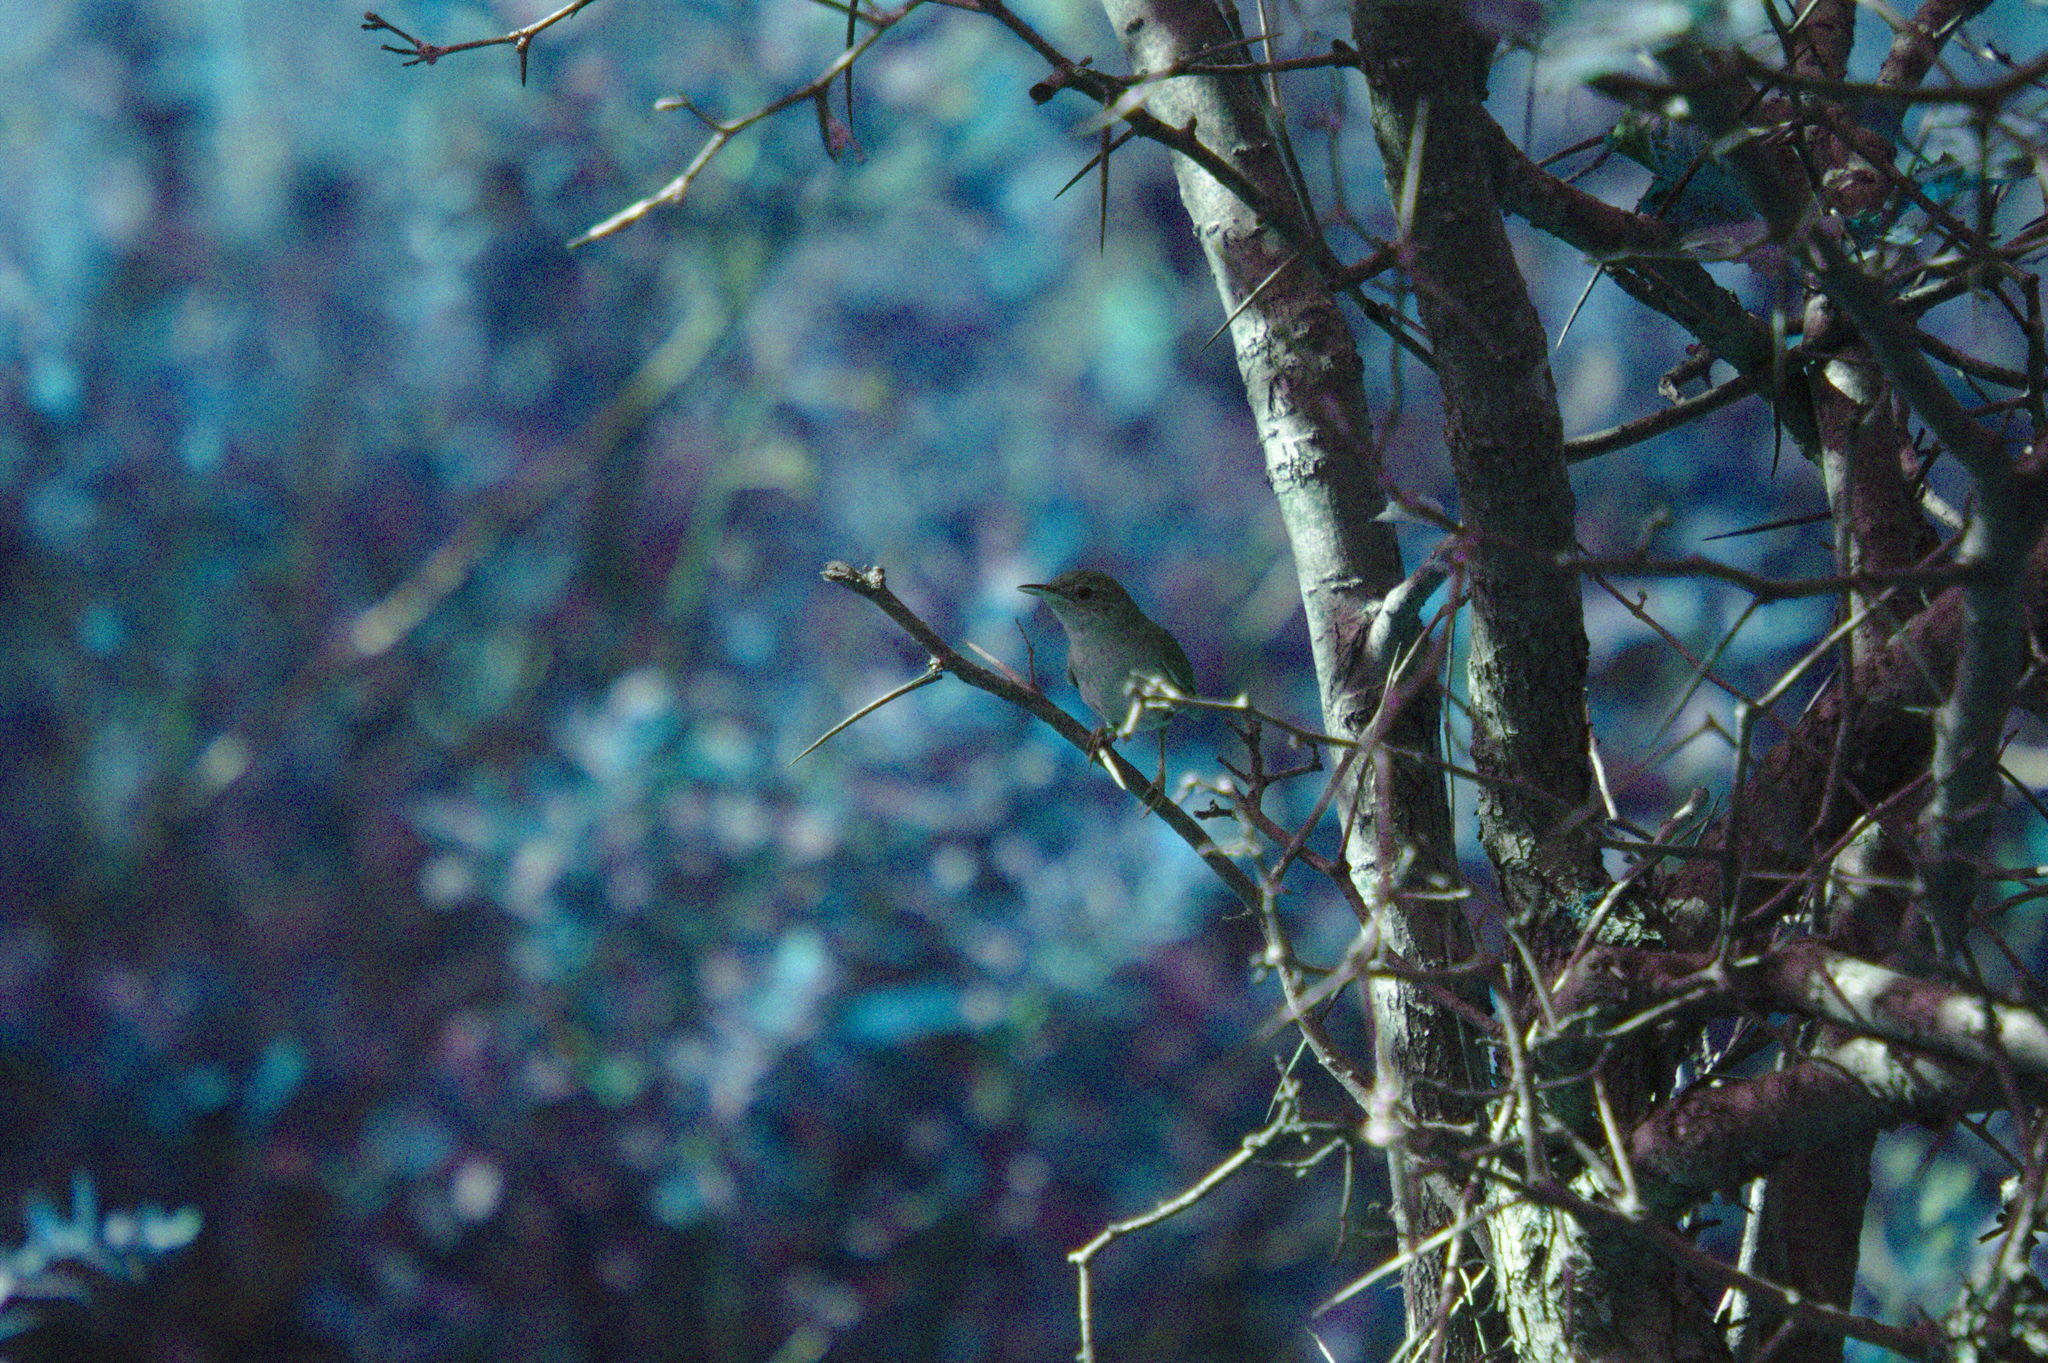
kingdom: Animalia
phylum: Chordata
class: Aves
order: Passeriformes
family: Troglodytidae
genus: Troglodytes
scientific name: Troglodytes aedon
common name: House wren
